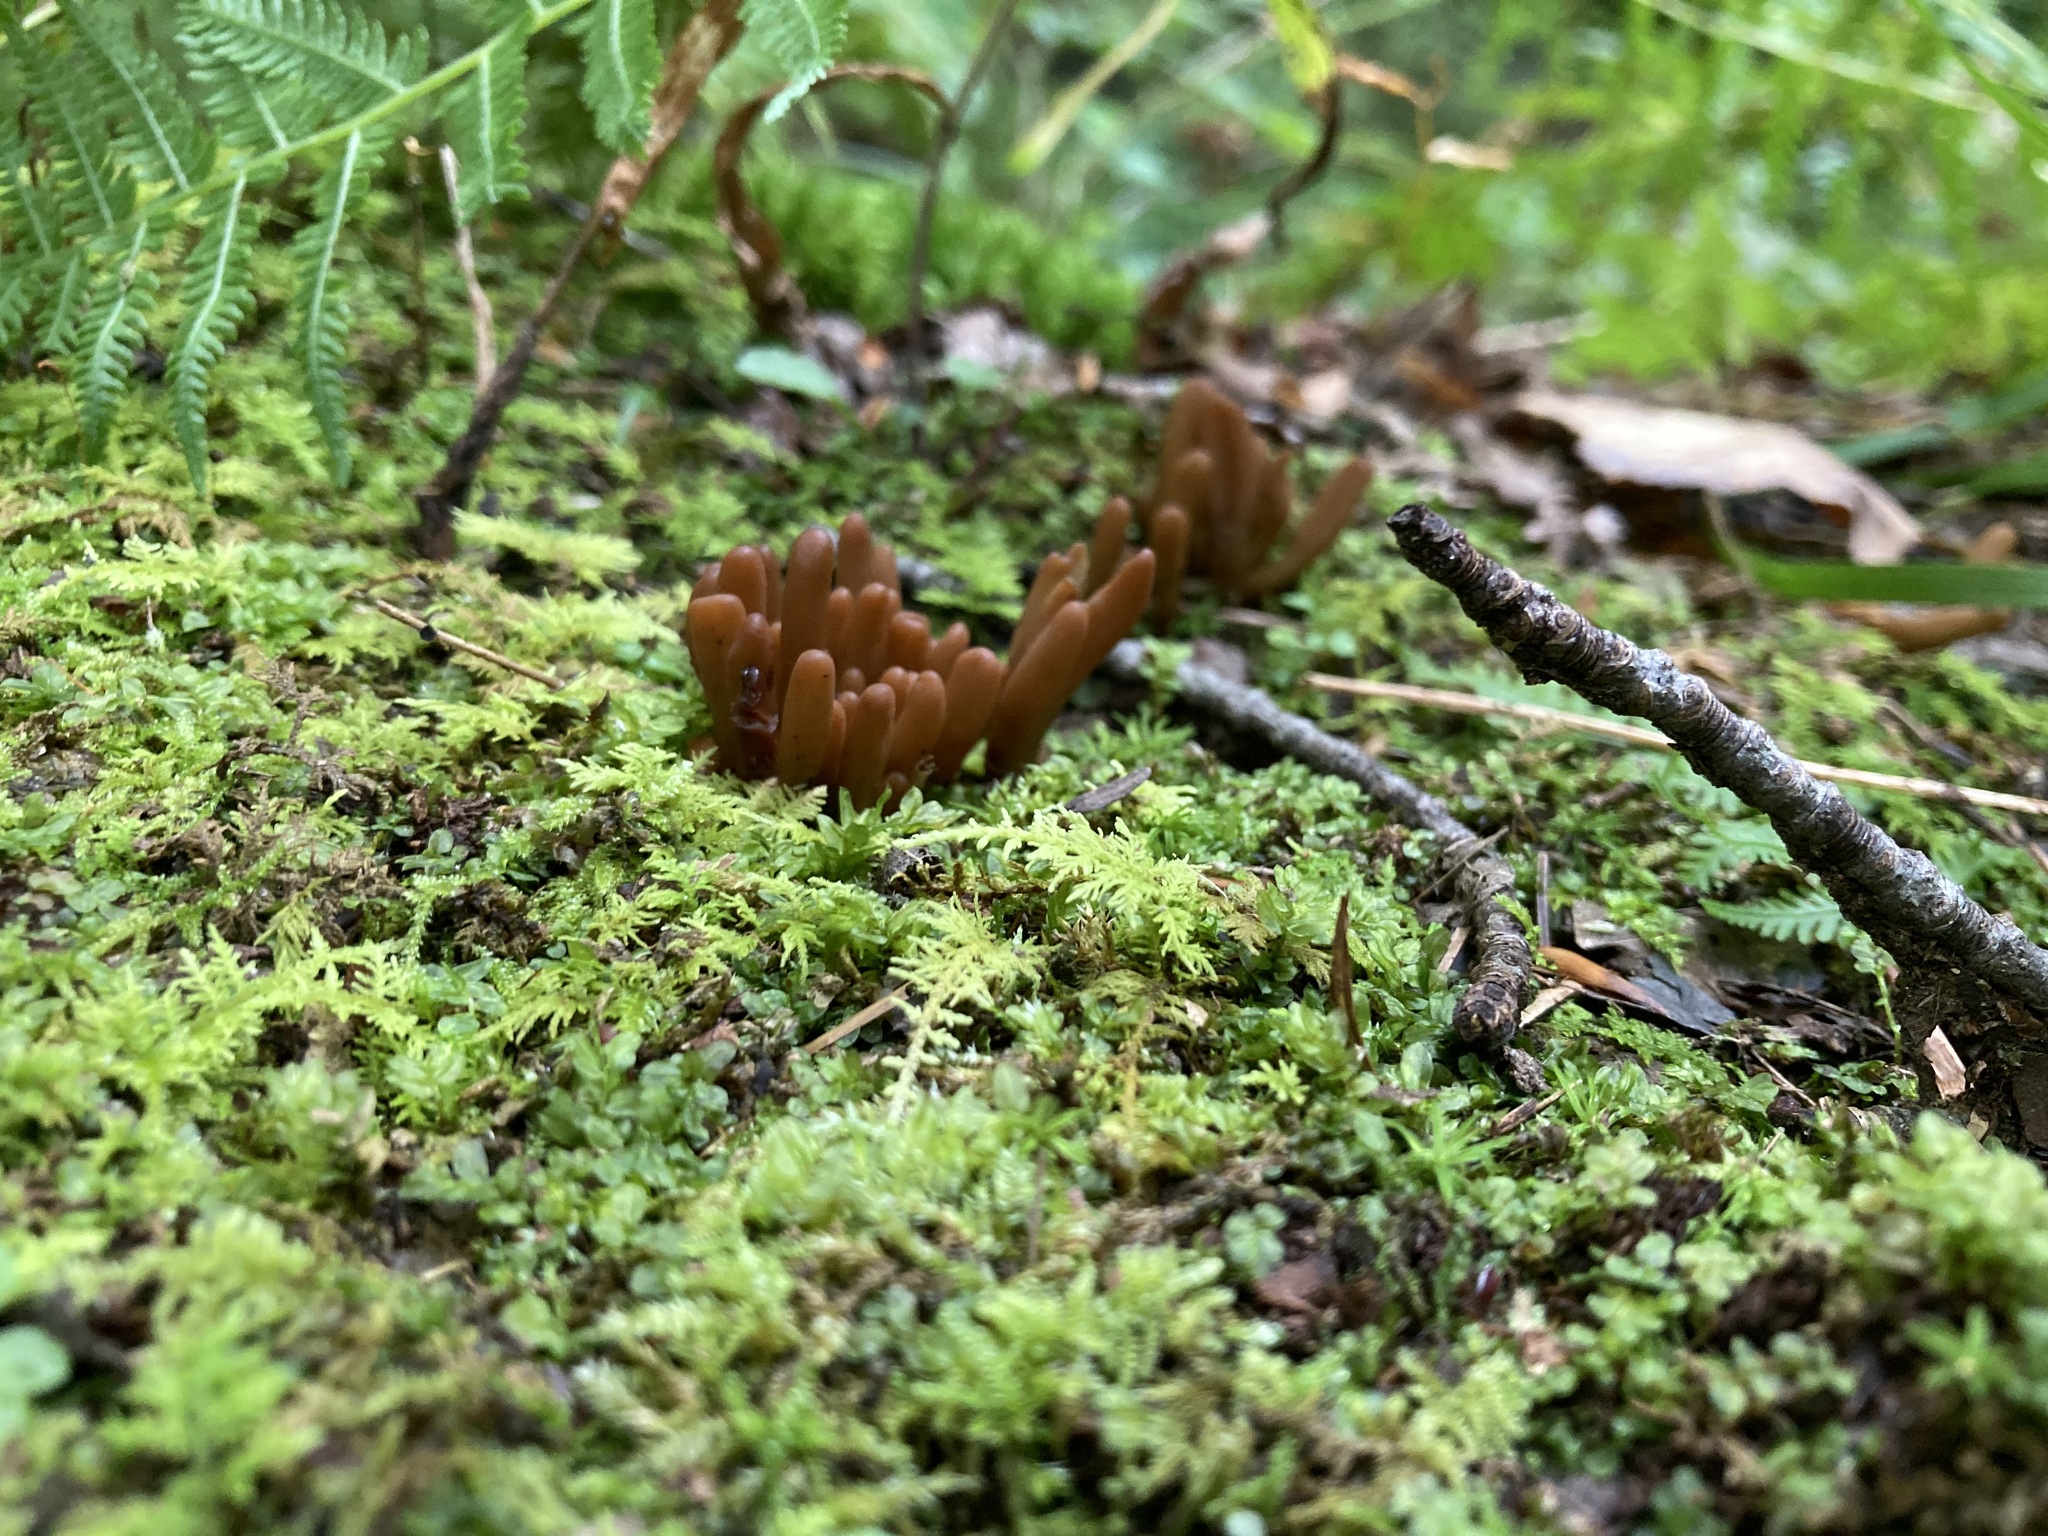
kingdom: Fungi
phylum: Ascomycota
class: Leotiomycetes
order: Leotiales
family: Leotiaceae
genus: Microglossum
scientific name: Microglossum olivaceum
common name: Olive earth-tongue
